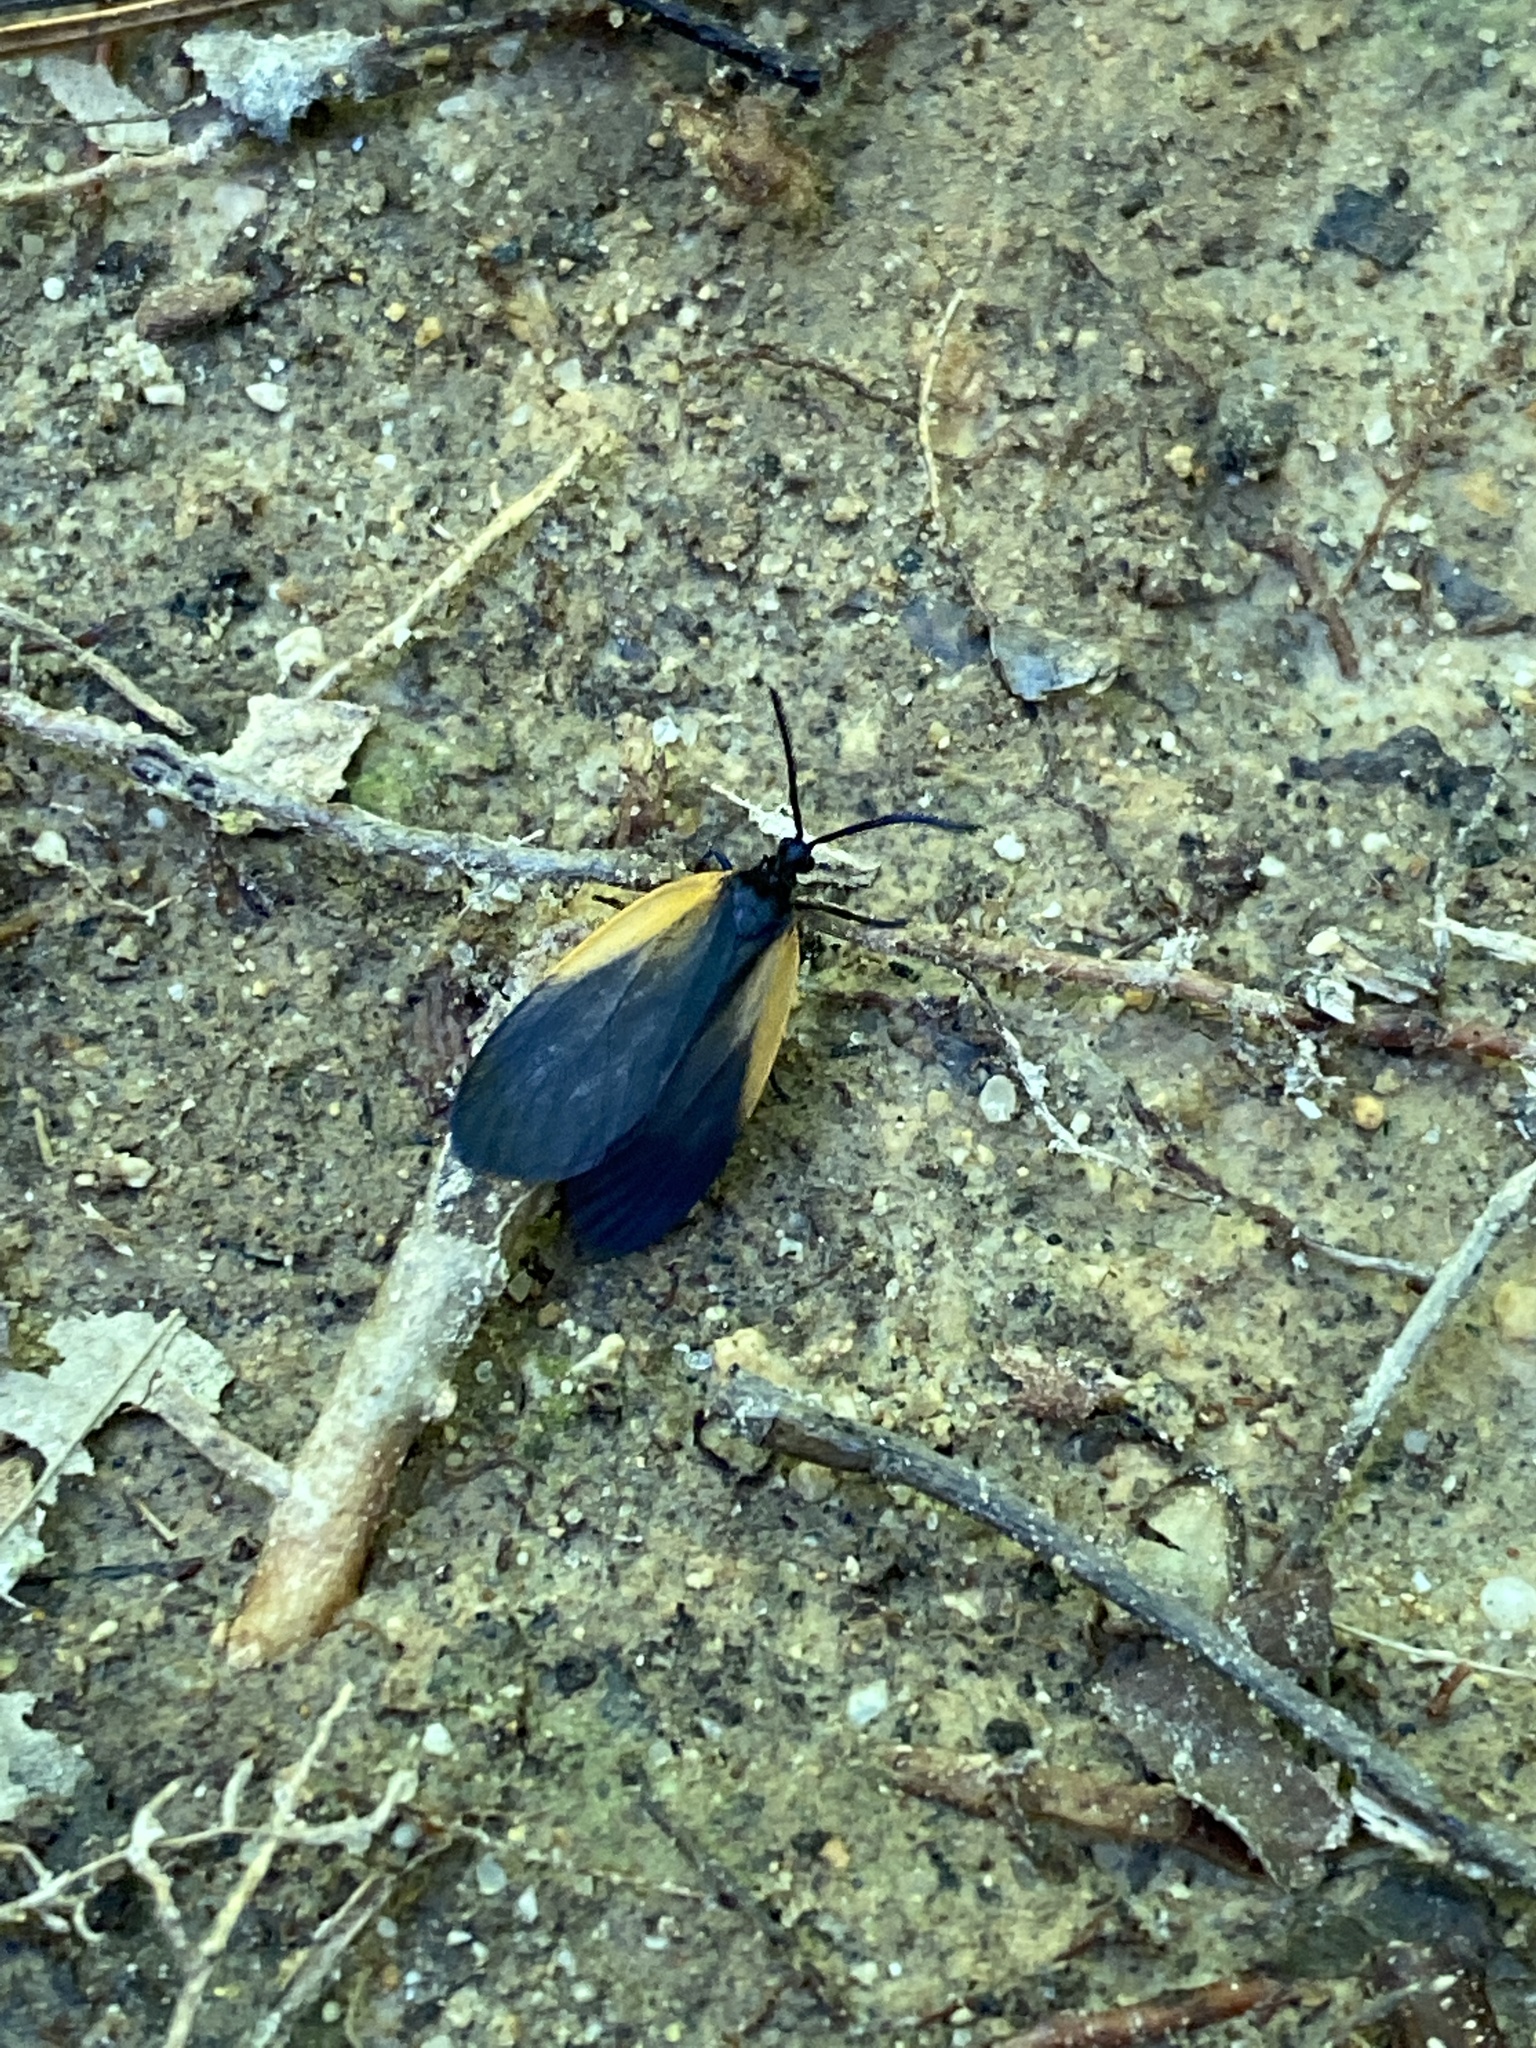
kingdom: Animalia
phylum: Arthropoda
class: Insecta
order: Lepidoptera
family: Zygaenidae
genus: Malthaca
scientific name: Malthaca dimidiata
